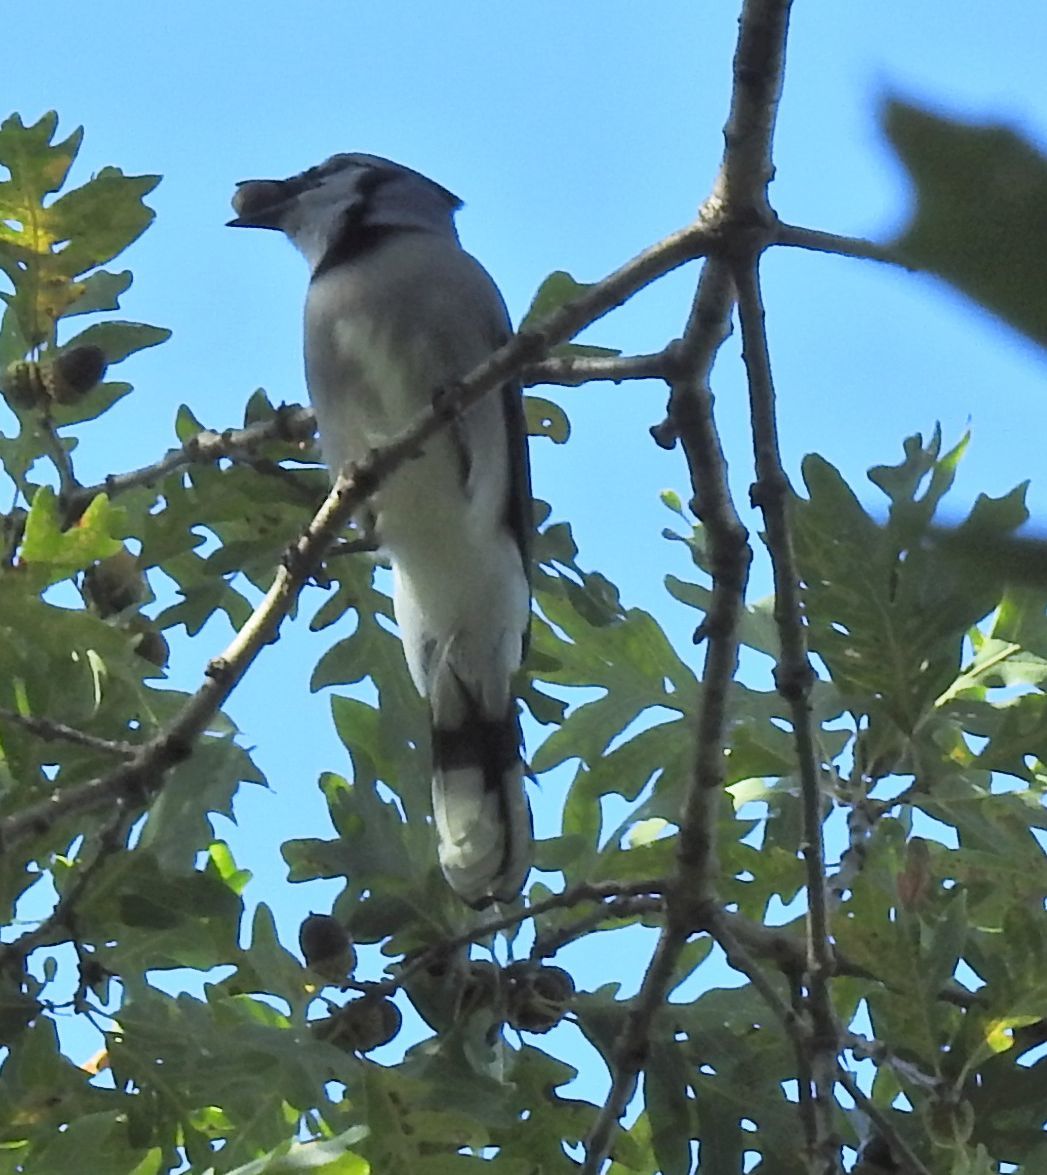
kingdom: Animalia
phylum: Chordata
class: Aves
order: Passeriformes
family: Corvidae
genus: Cyanocitta
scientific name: Cyanocitta cristata
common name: Blue jay
